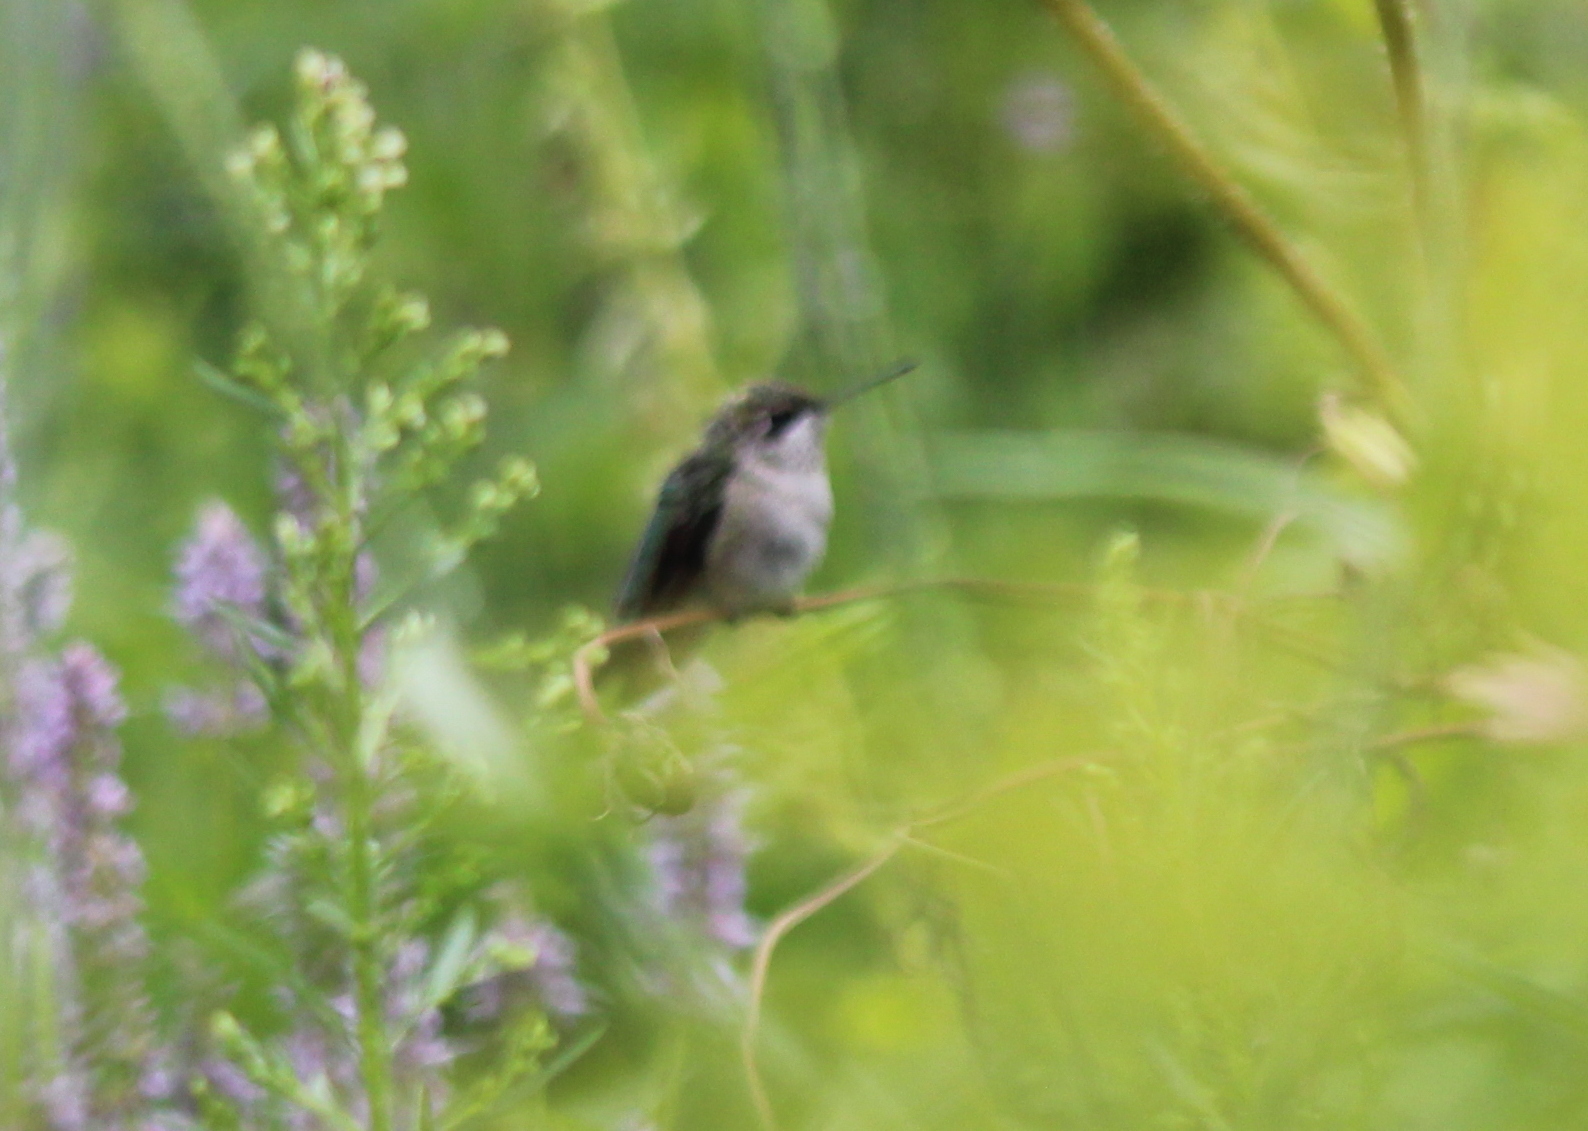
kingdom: Animalia
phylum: Chordata
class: Aves
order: Apodiformes
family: Trochilidae
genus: Archilochus
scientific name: Archilochus colubris
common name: Ruby-throated hummingbird
